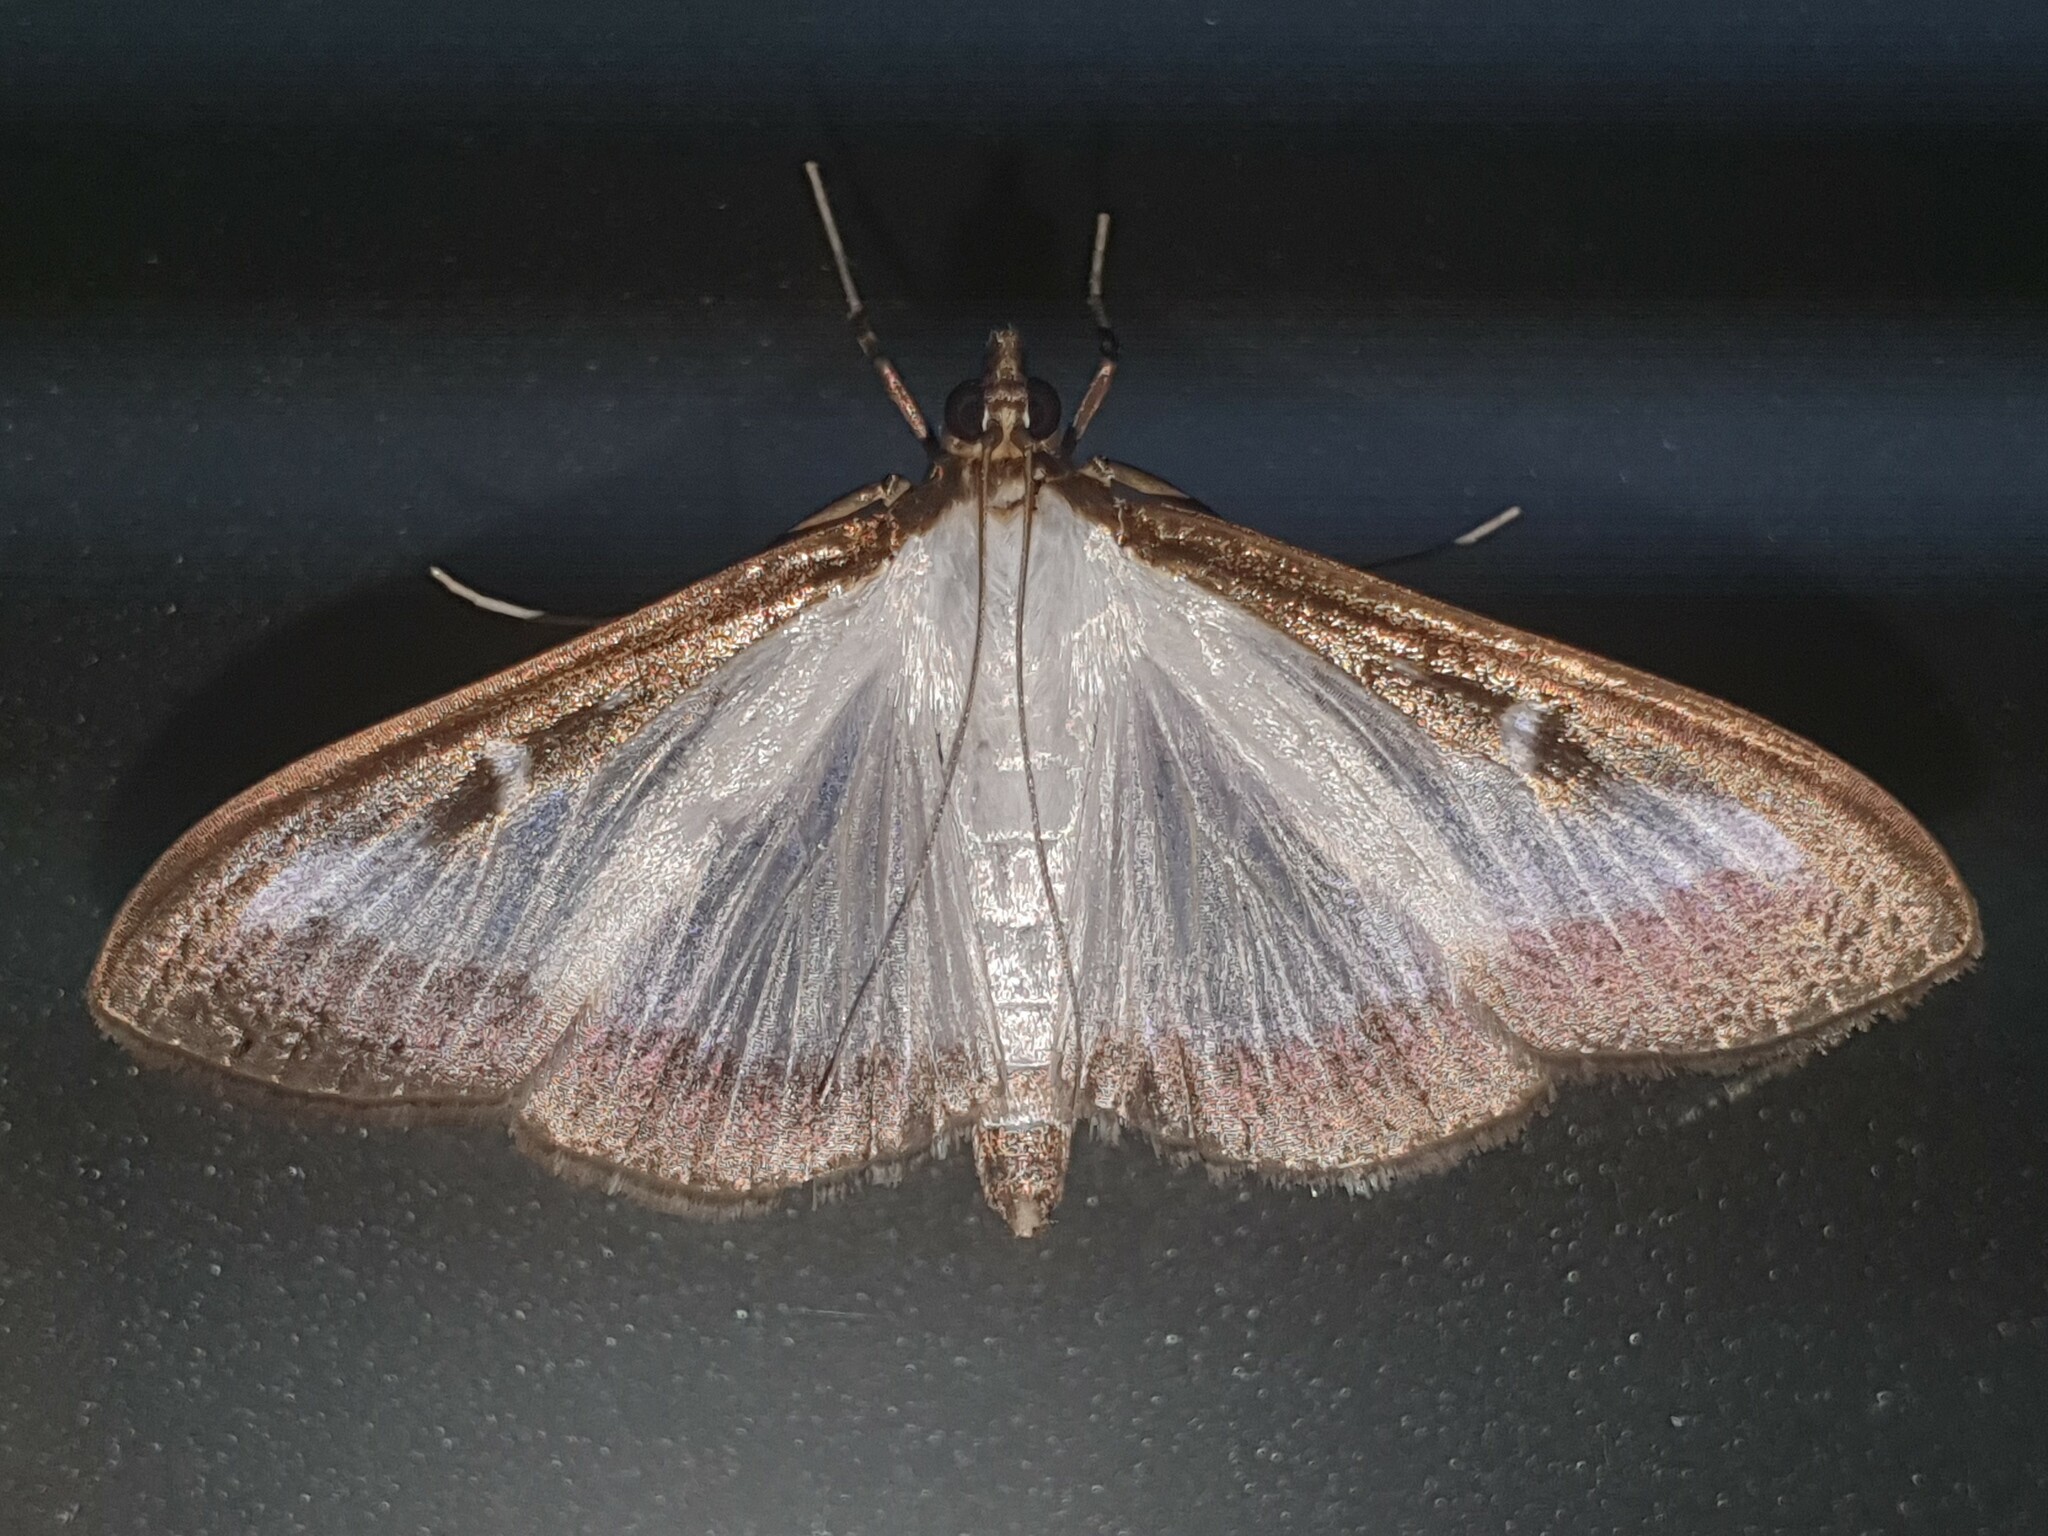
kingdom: Animalia
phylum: Arthropoda
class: Insecta
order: Lepidoptera
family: Crambidae
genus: Cydalima
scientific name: Cydalima perspectalis
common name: Box tree moth
